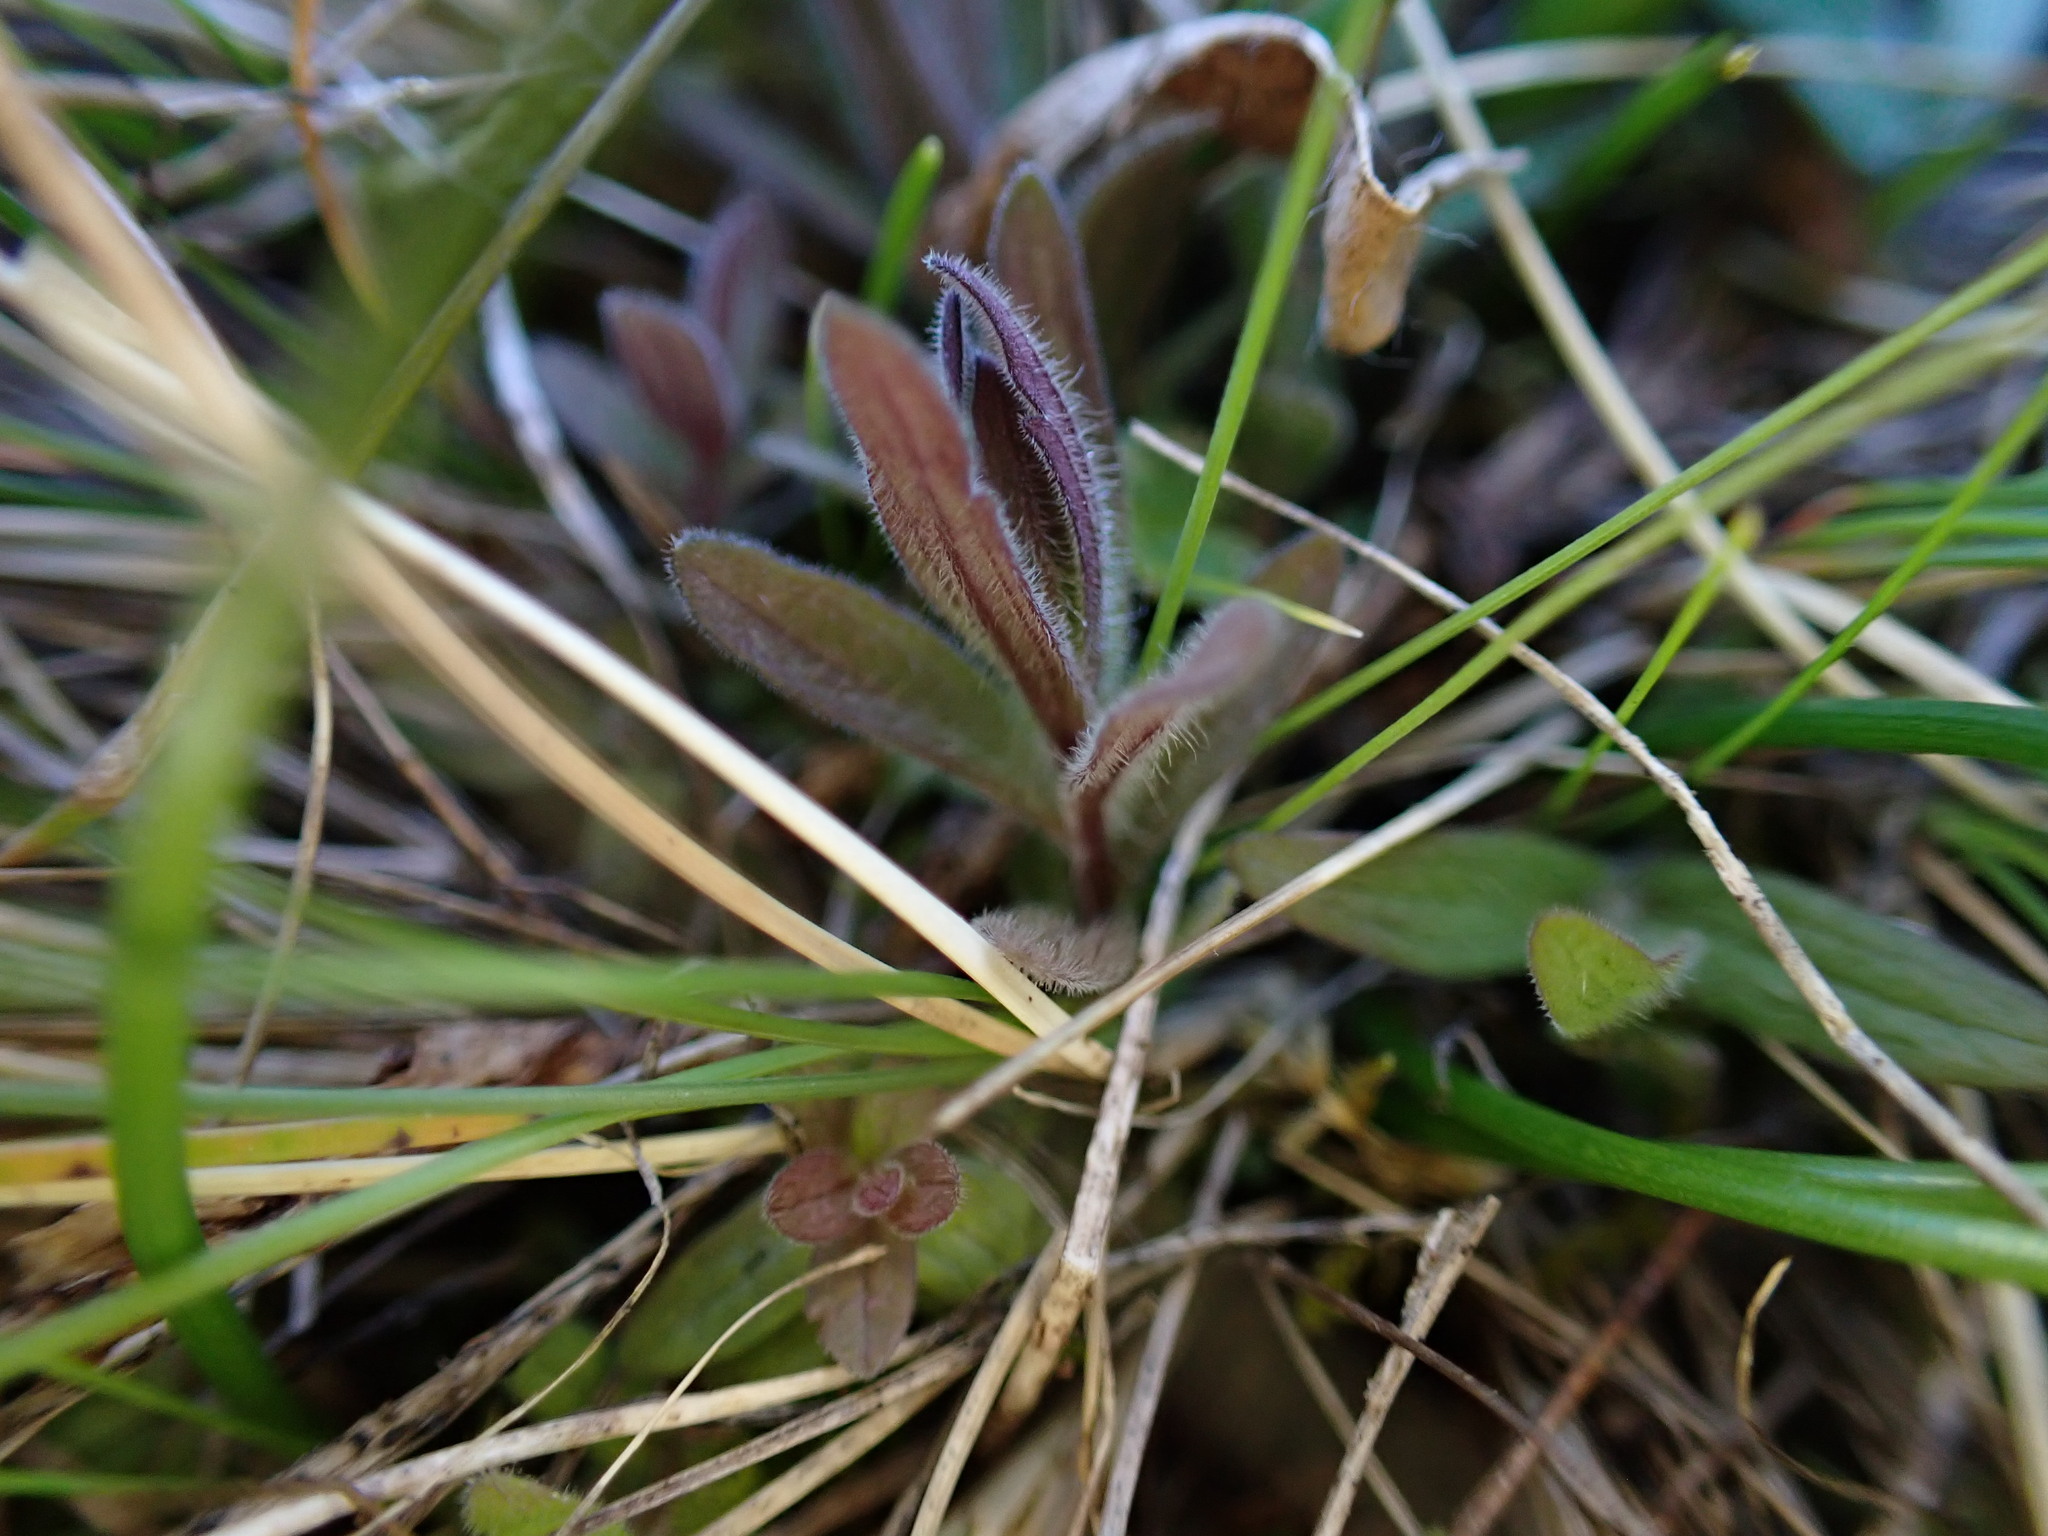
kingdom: Plantae
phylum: Tracheophyta
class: Magnoliopsida
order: Lamiales
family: Orobanchaceae
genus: Castilleja
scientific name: Castilleja levisecta
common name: Golden paintbrush
